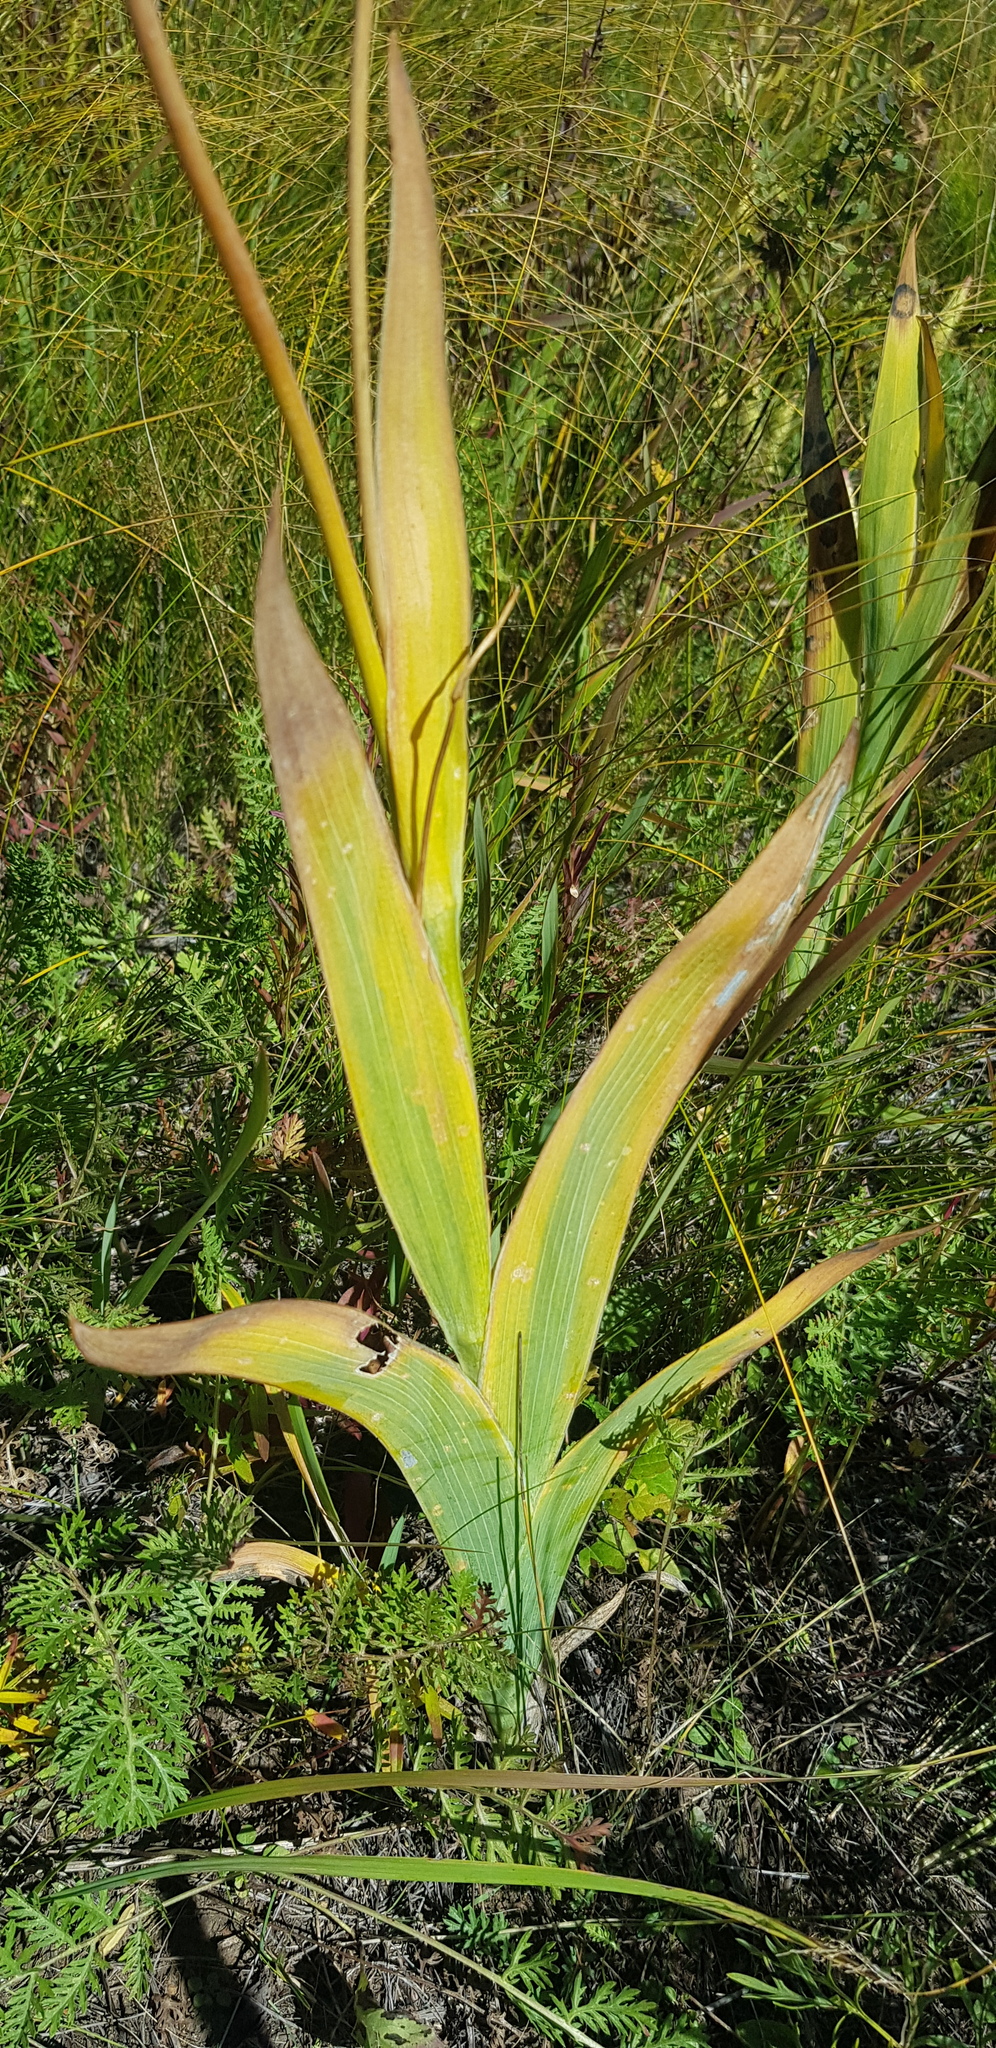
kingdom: Plantae
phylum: Tracheophyta
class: Liliopsida
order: Asparagales
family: Iridaceae
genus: Iris
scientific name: Iris dichotoma
